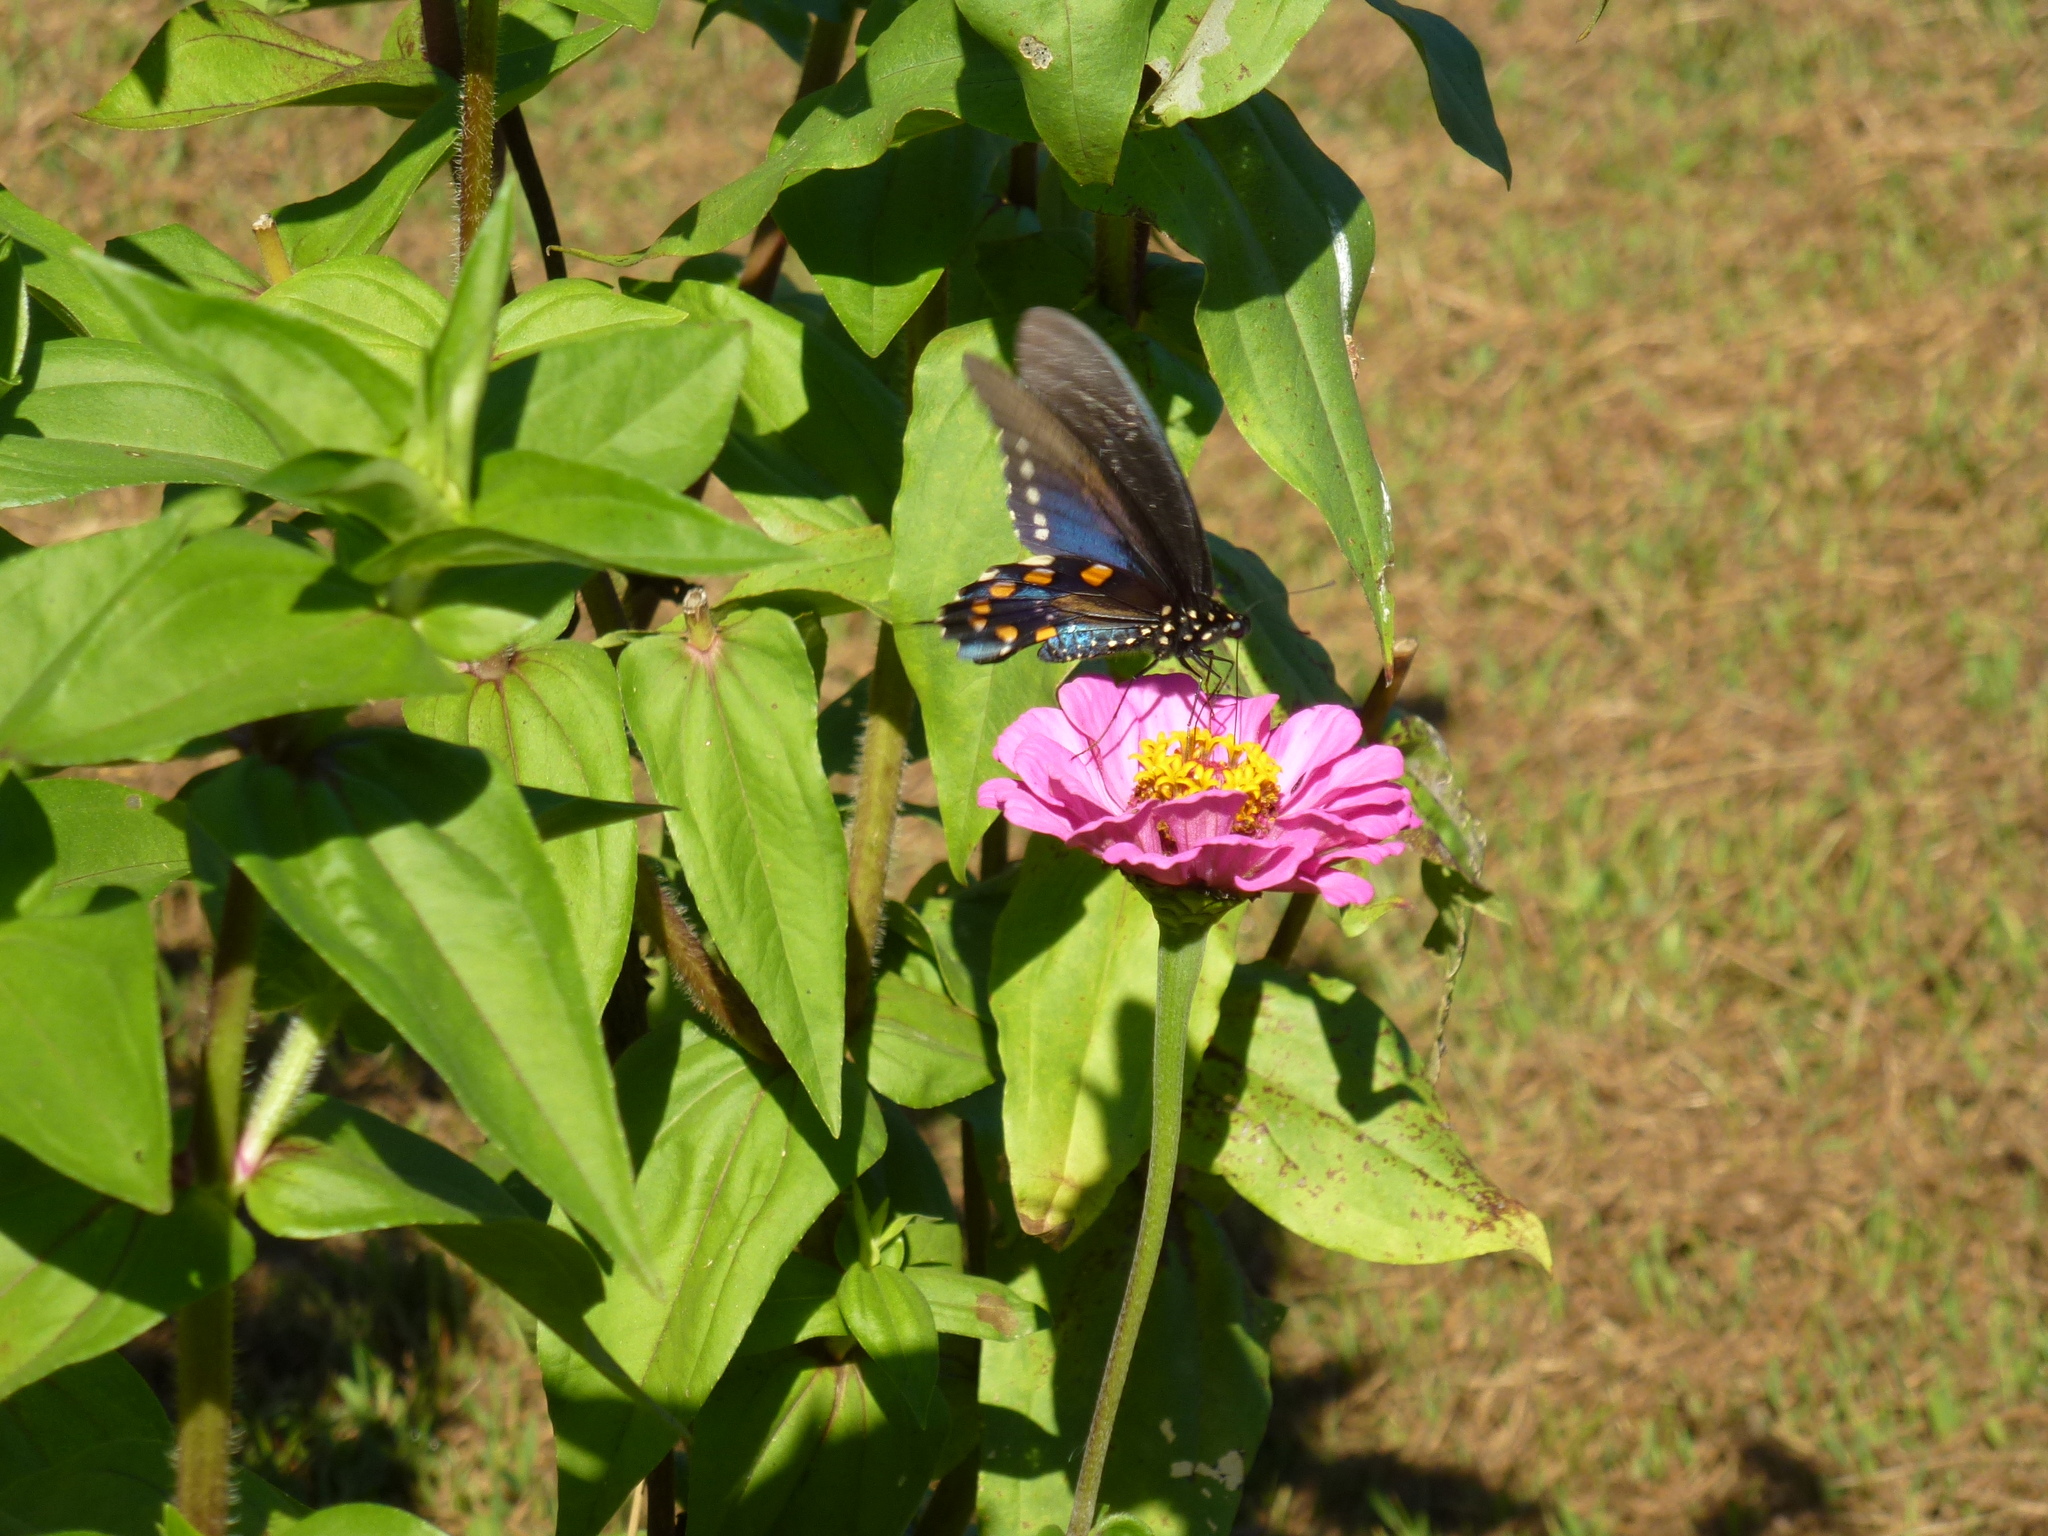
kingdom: Animalia
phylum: Arthropoda
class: Insecta
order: Lepidoptera
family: Papilionidae
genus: Battus
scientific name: Battus philenor
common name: Pipevine swallowtail
